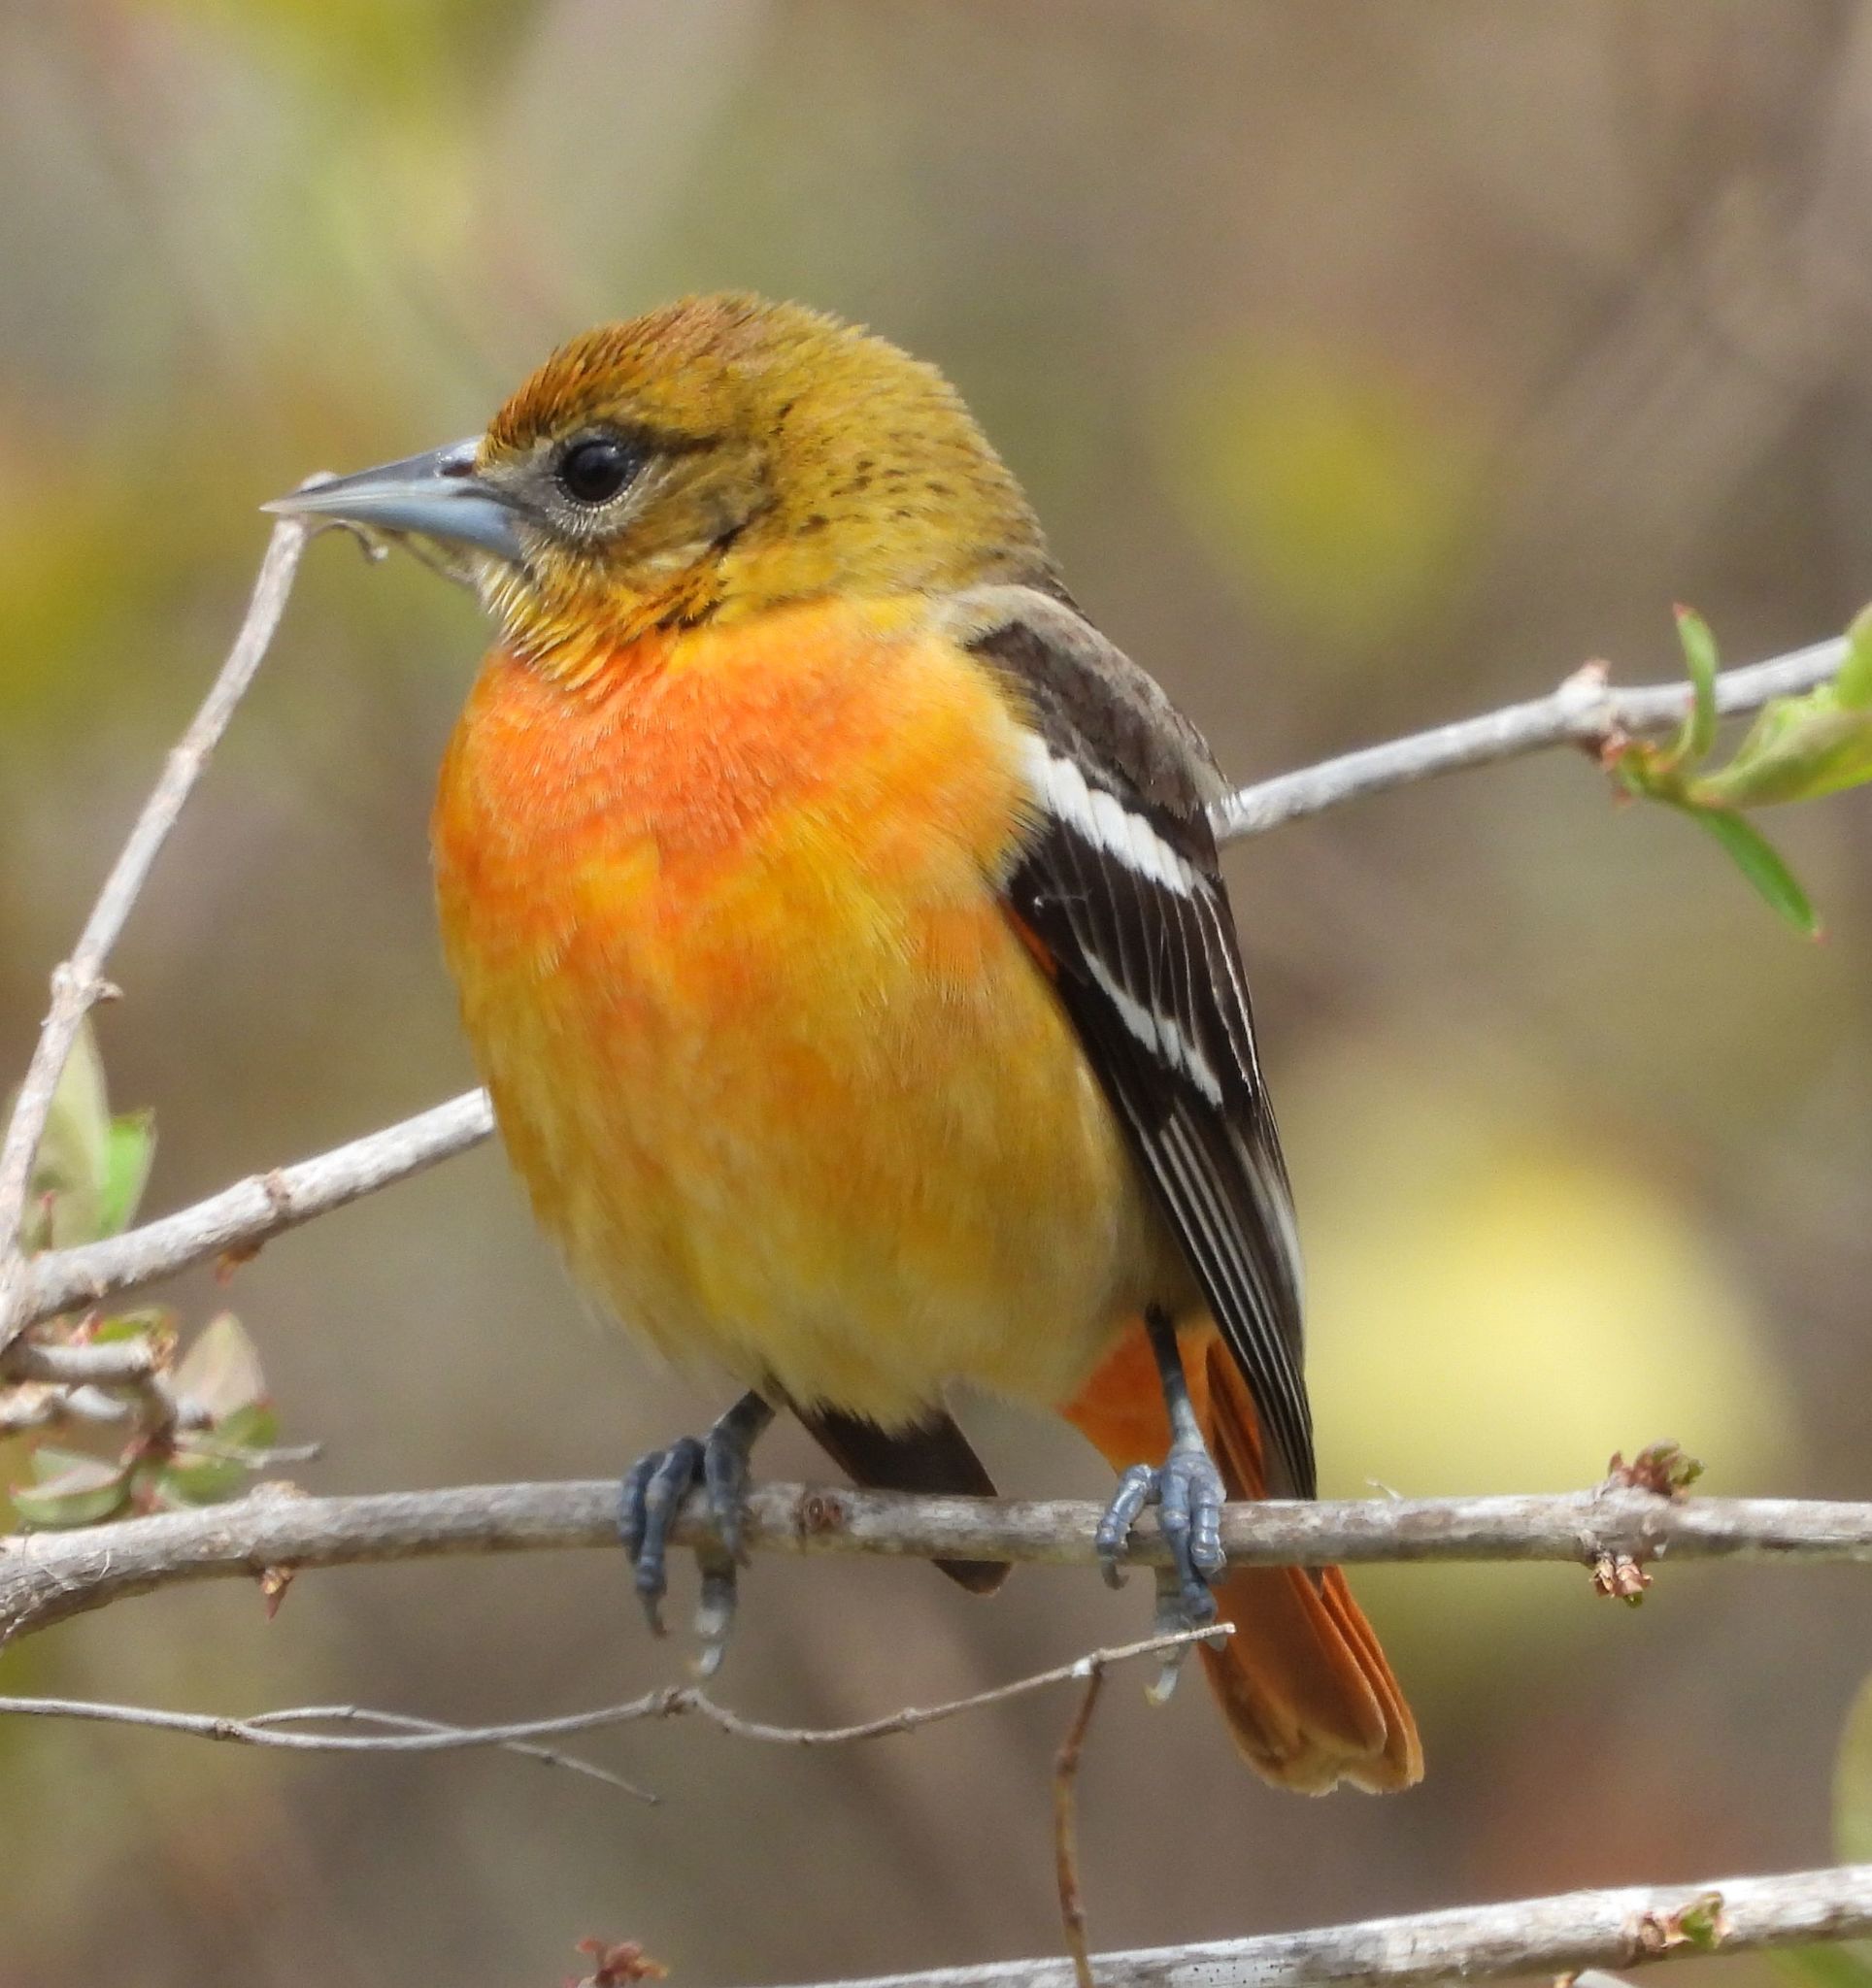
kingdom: Animalia
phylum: Chordata
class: Aves
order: Passeriformes
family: Icteridae
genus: Icterus
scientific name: Icterus galbula
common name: Baltimore oriole
